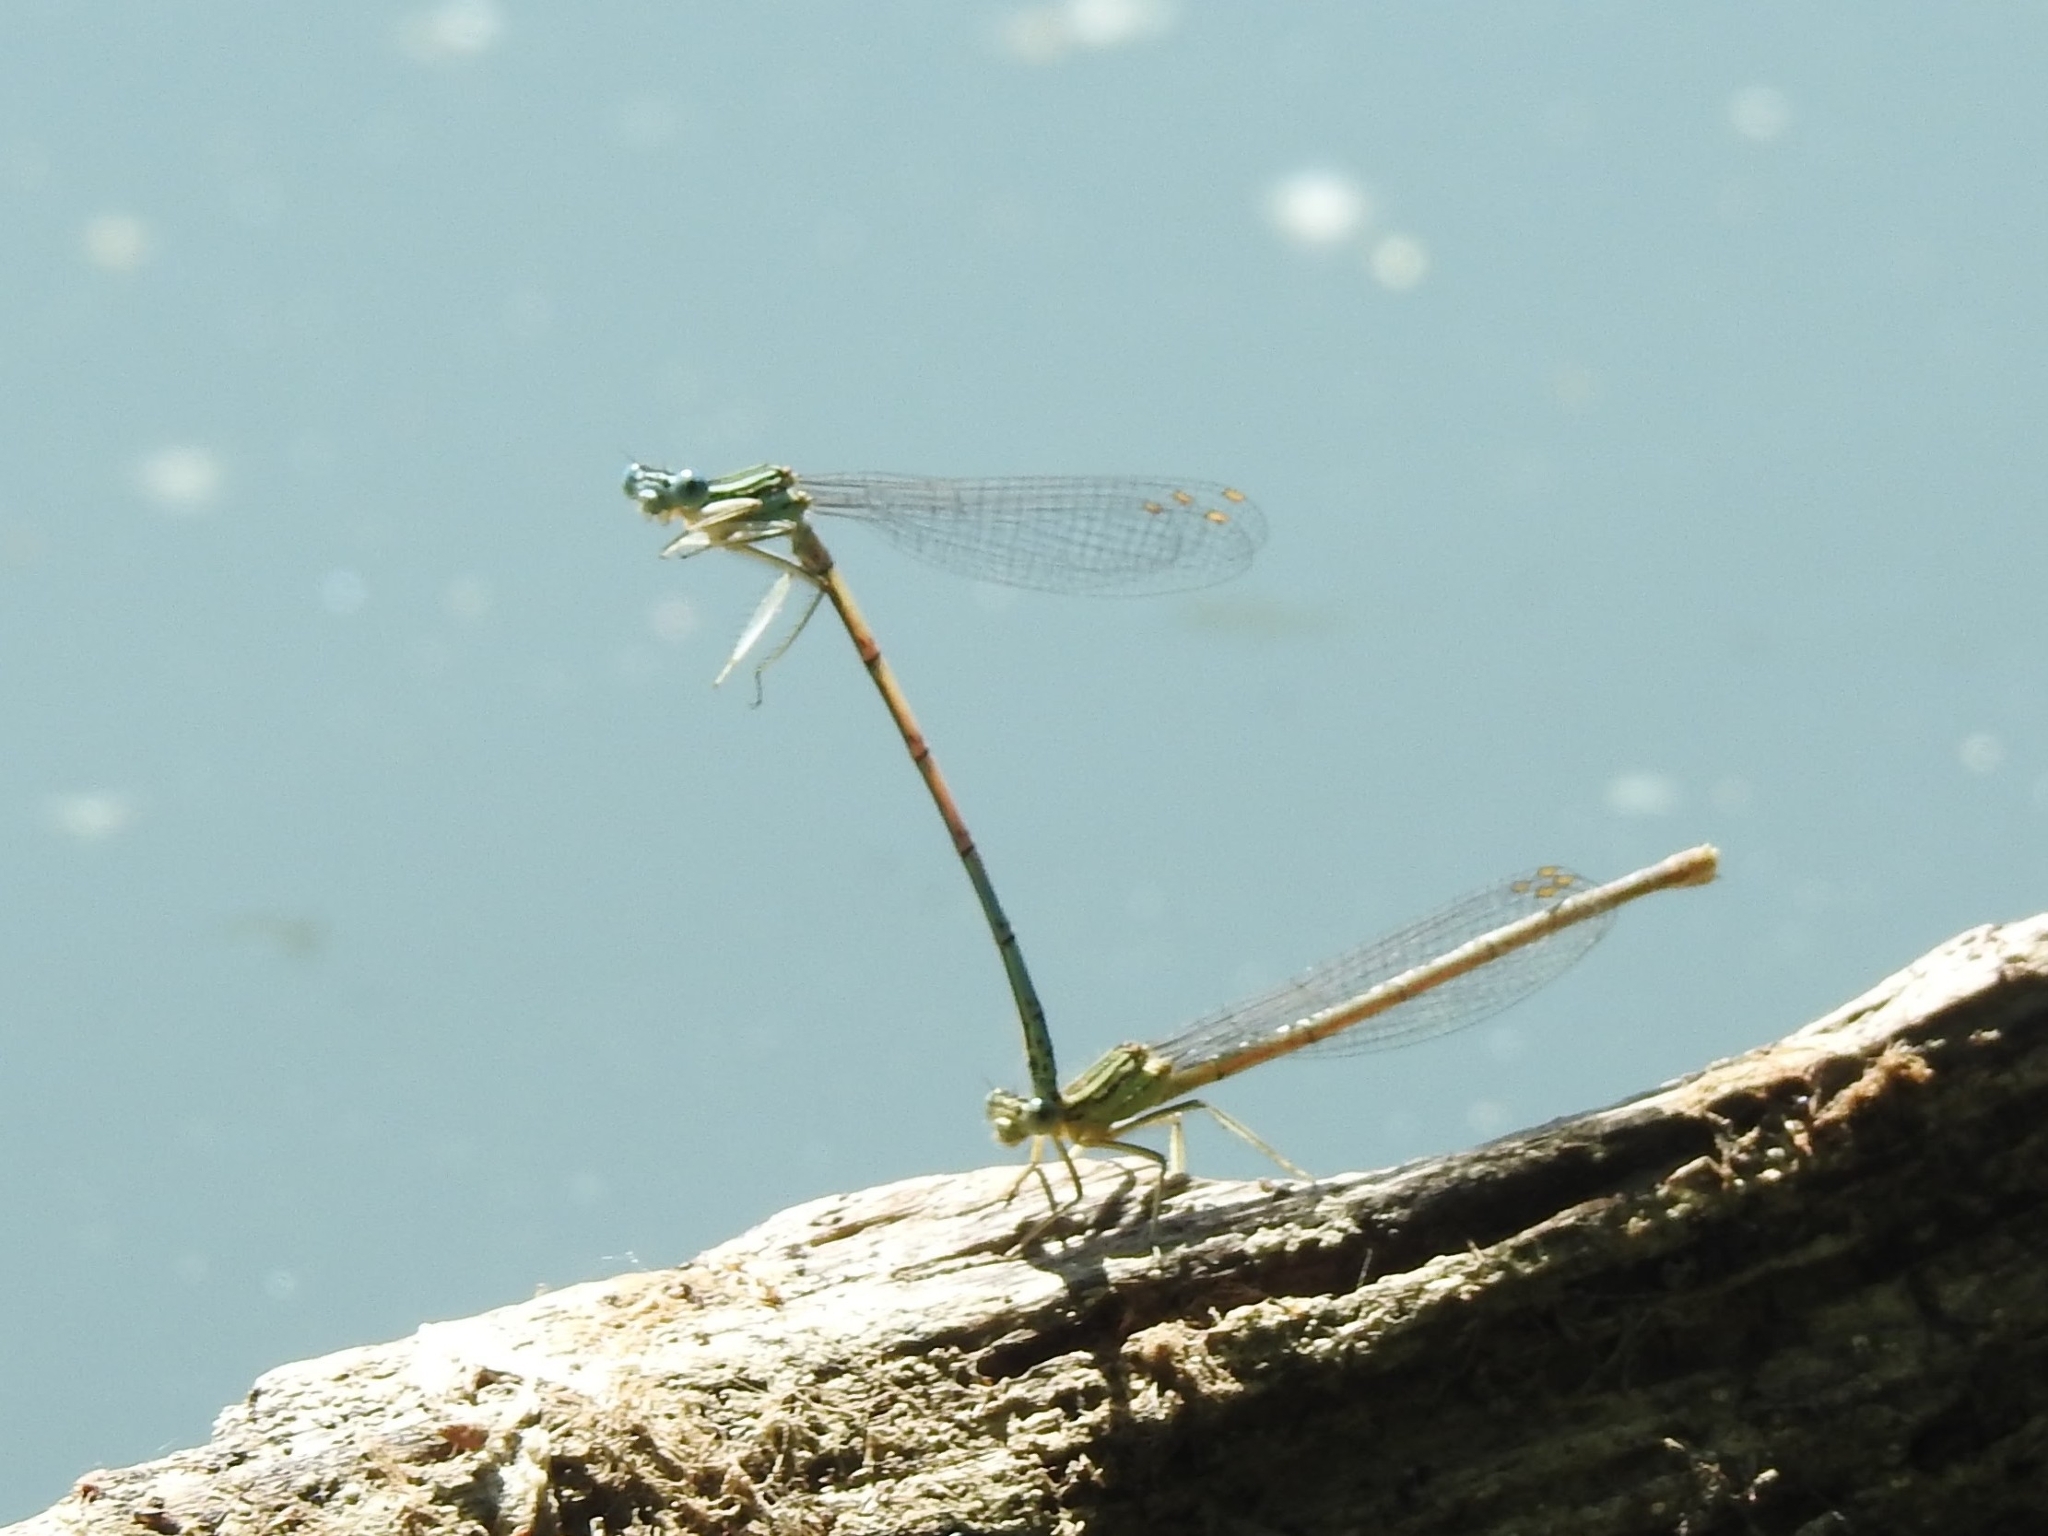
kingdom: Animalia
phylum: Arthropoda
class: Insecta
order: Odonata
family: Platycnemididae
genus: Platycnemis
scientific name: Platycnemis pennipes
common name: White-legged damselfly
